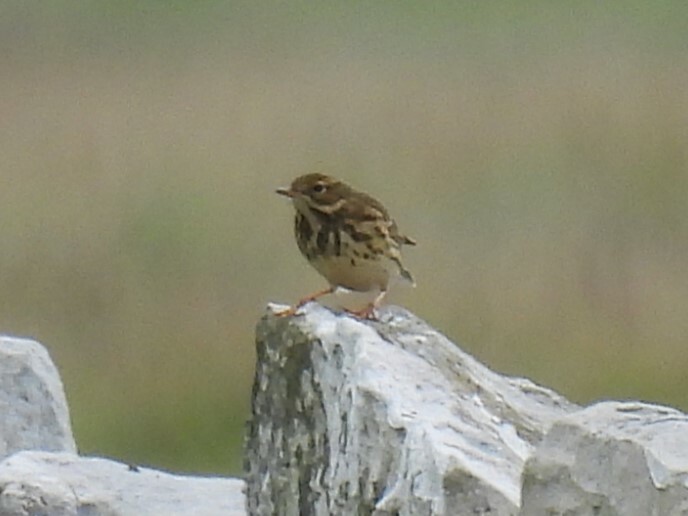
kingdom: Animalia
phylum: Chordata
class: Aves
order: Passeriformes
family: Motacillidae
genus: Anthus
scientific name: Anthus pratensis
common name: Meadow pipit
